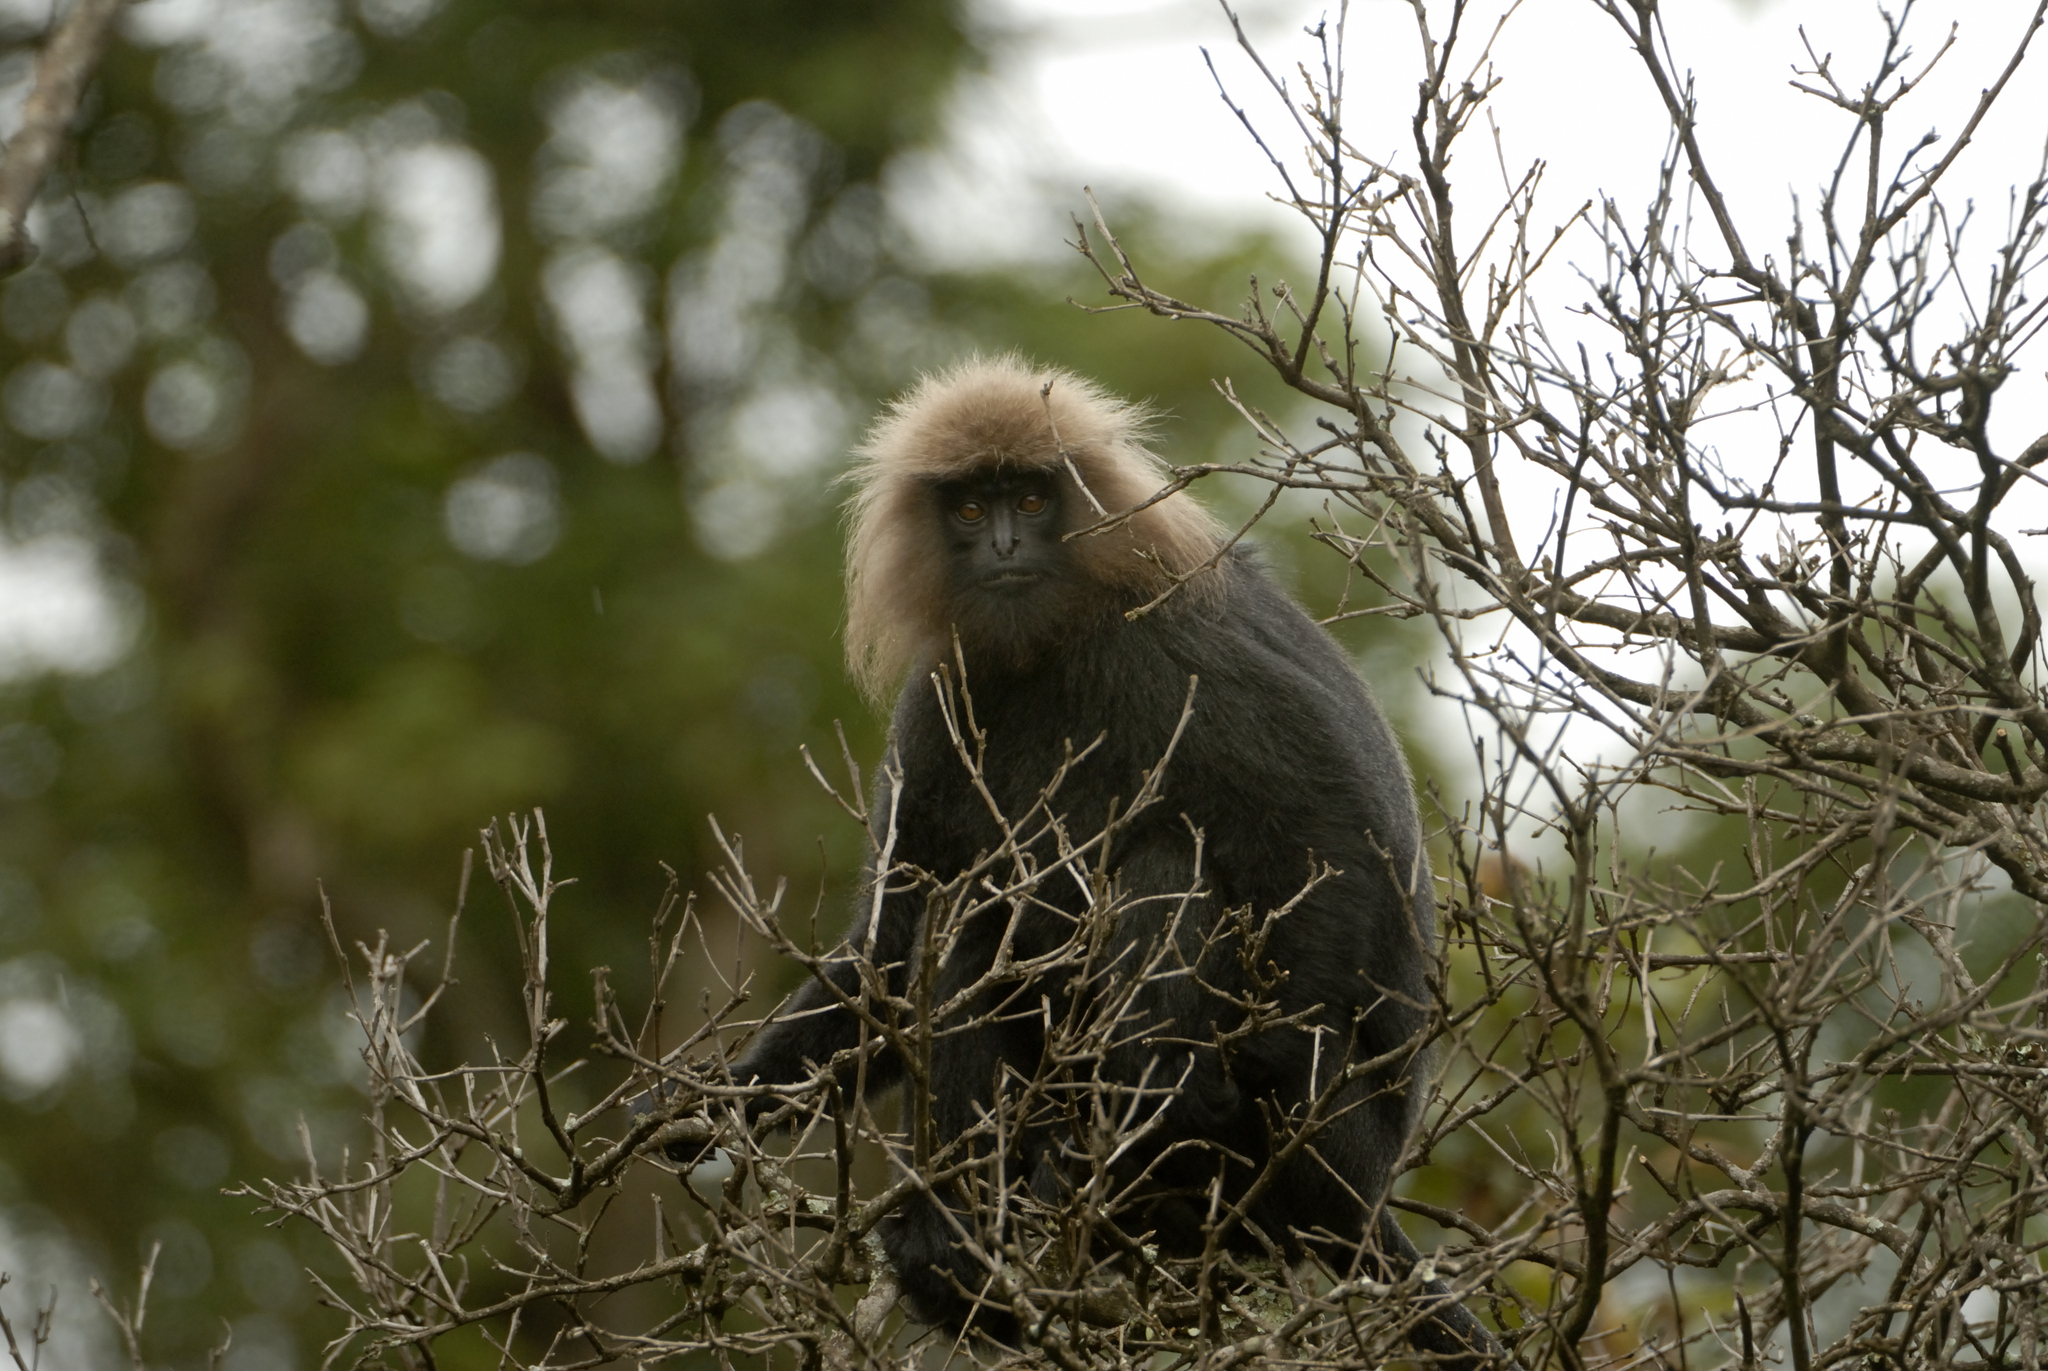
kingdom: Animalia
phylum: Chordata
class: Mammalia
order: Primates
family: Cercopithecidae
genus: Semnopithecus
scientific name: Semnopithecus johnii
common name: Nilgiri langur
